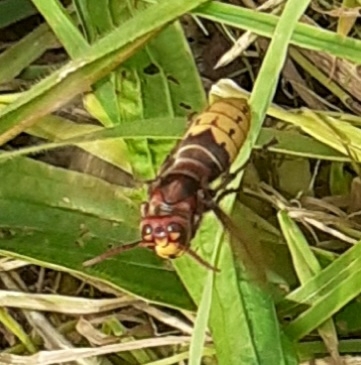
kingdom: Animalia
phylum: Arthropoda
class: Insecta
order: Hymenoptera
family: Vespidae
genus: Vespa
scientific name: Vespa crabro
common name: Hornet
